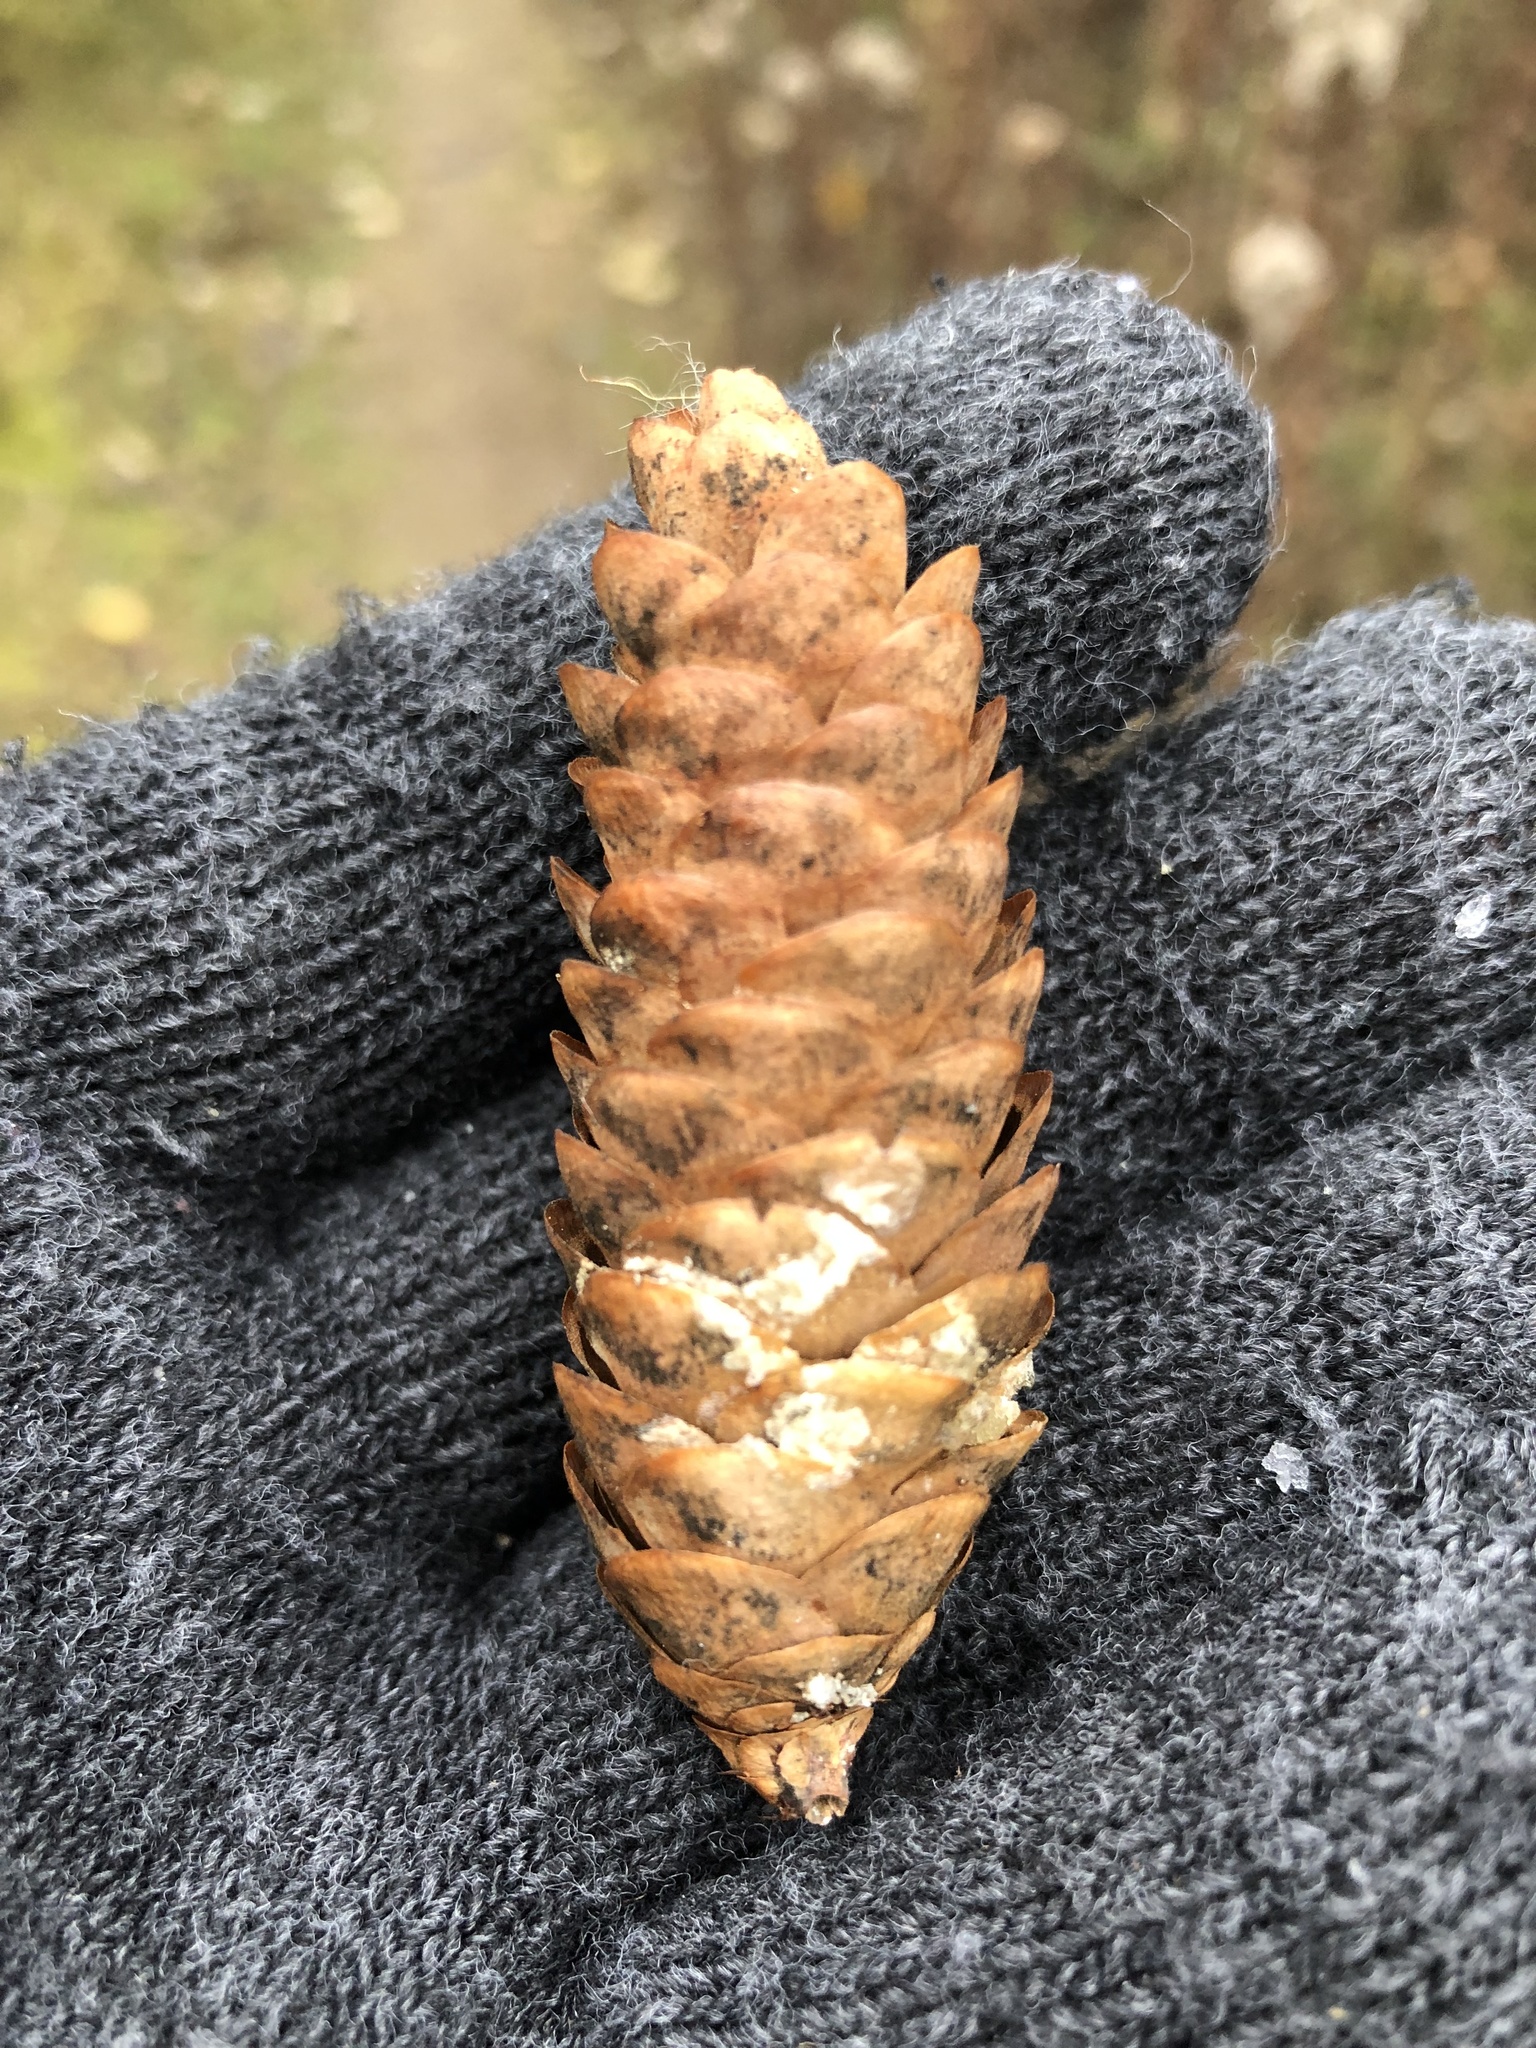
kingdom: Plantae
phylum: Tracheophyta
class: Pinopsida
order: Pinales
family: Pinaceae
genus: Picea
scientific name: Picea glauca
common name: White spruce
